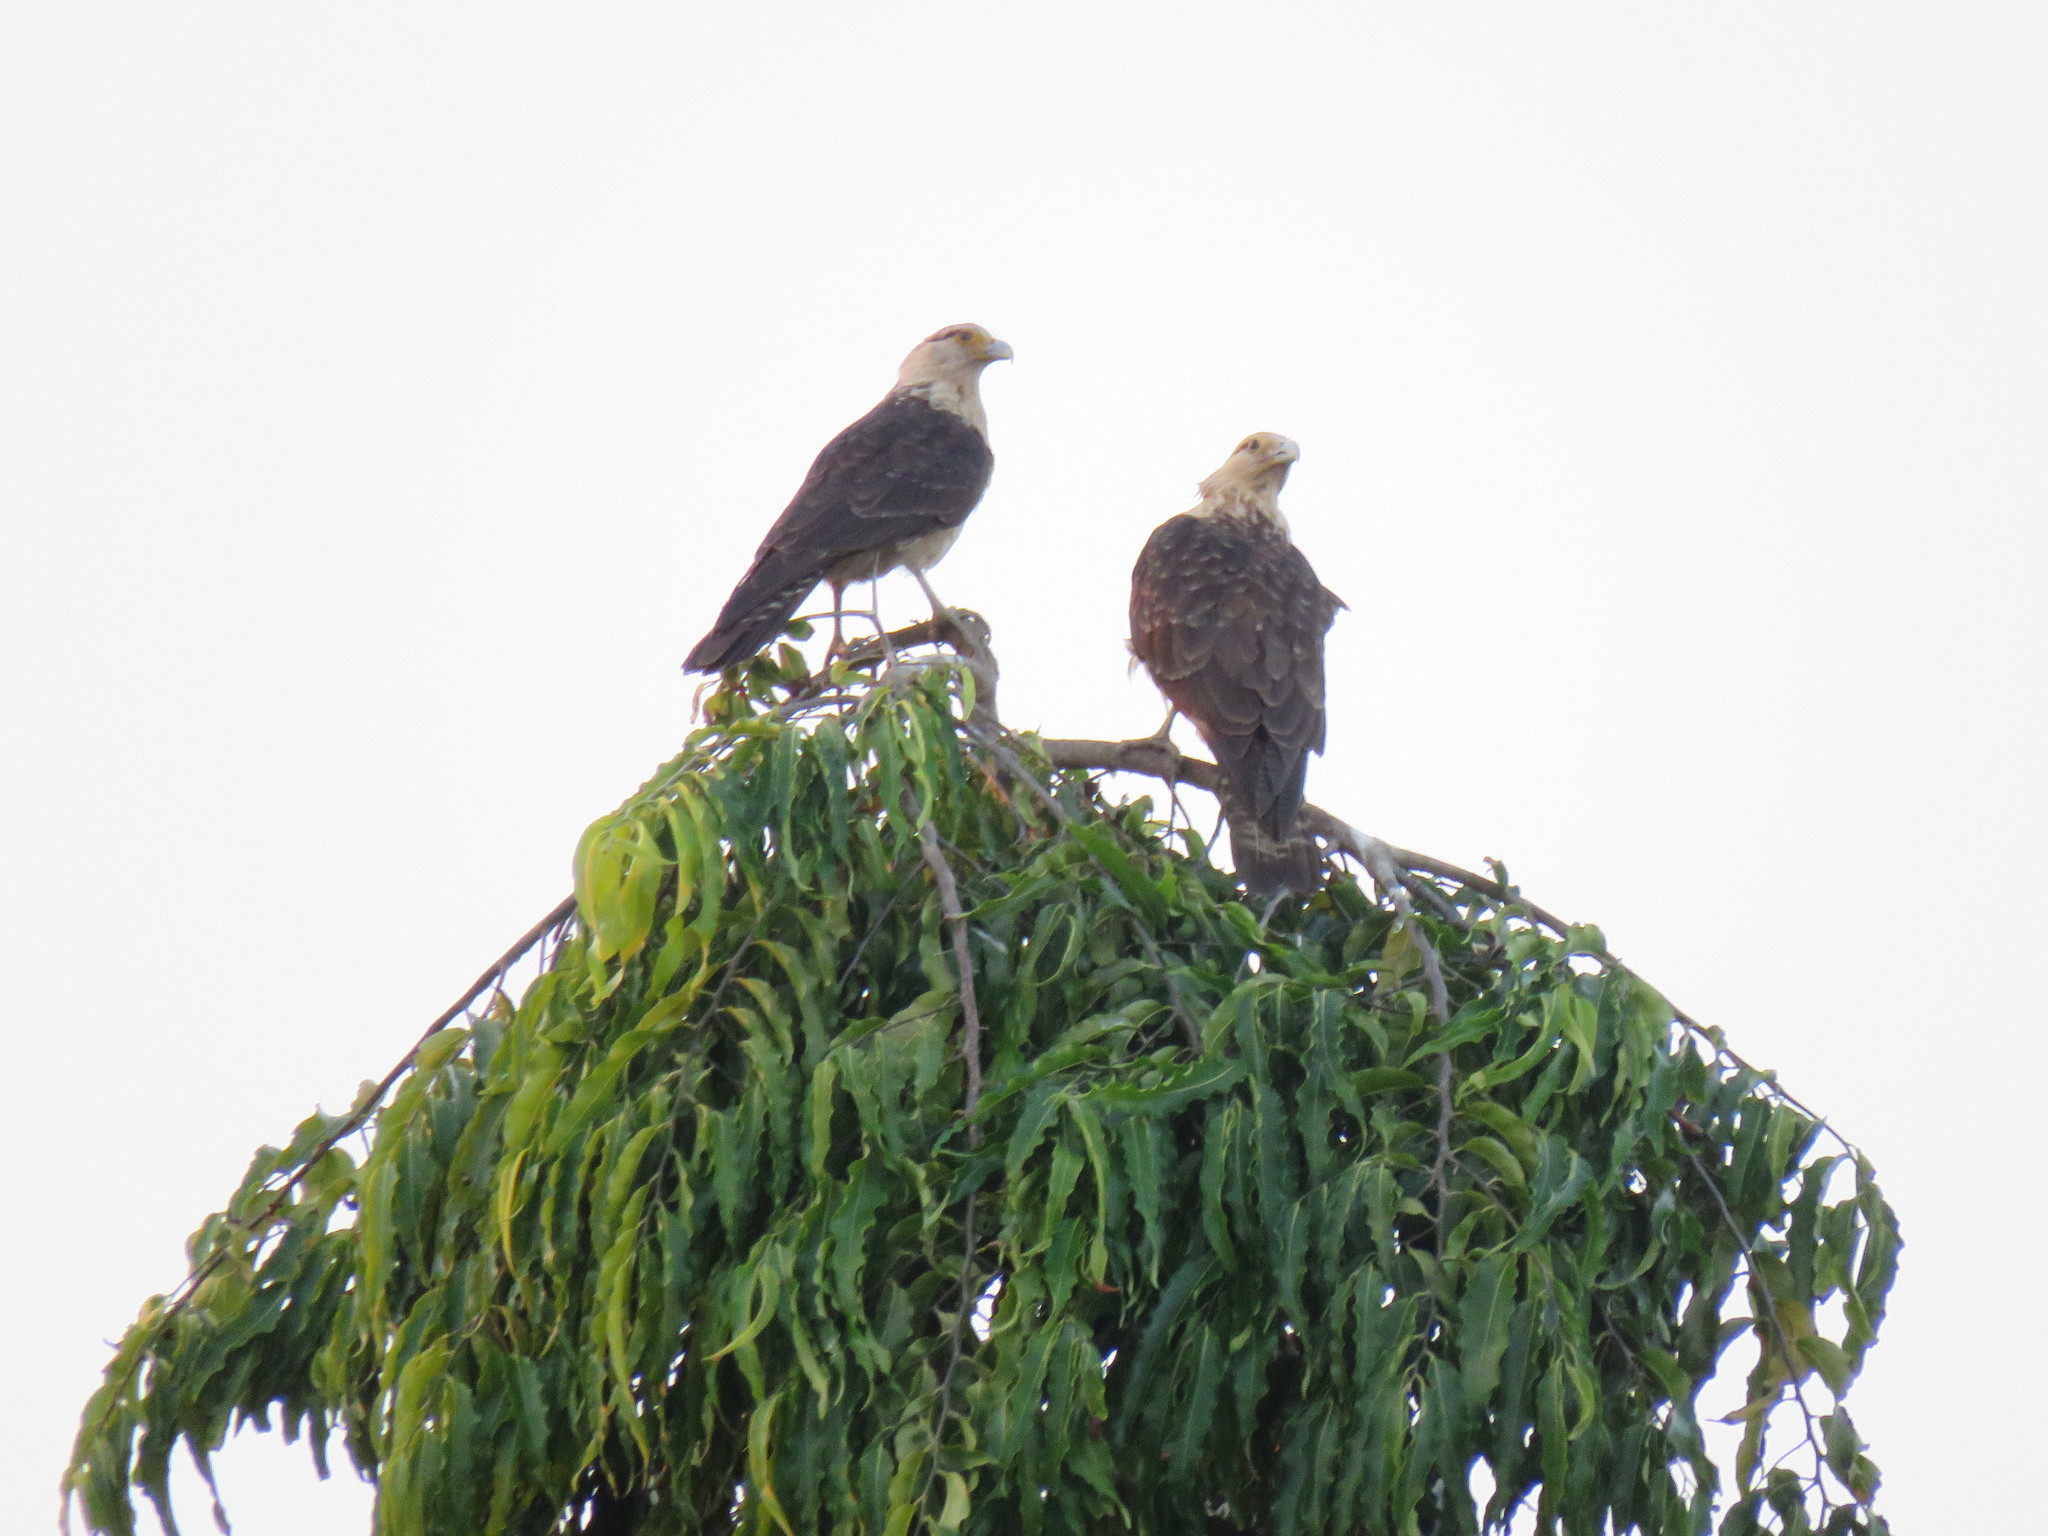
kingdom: Animalia
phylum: Chordata
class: Aves
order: Falconiformes
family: Falconidae
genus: Daptrius
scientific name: Daptrius
